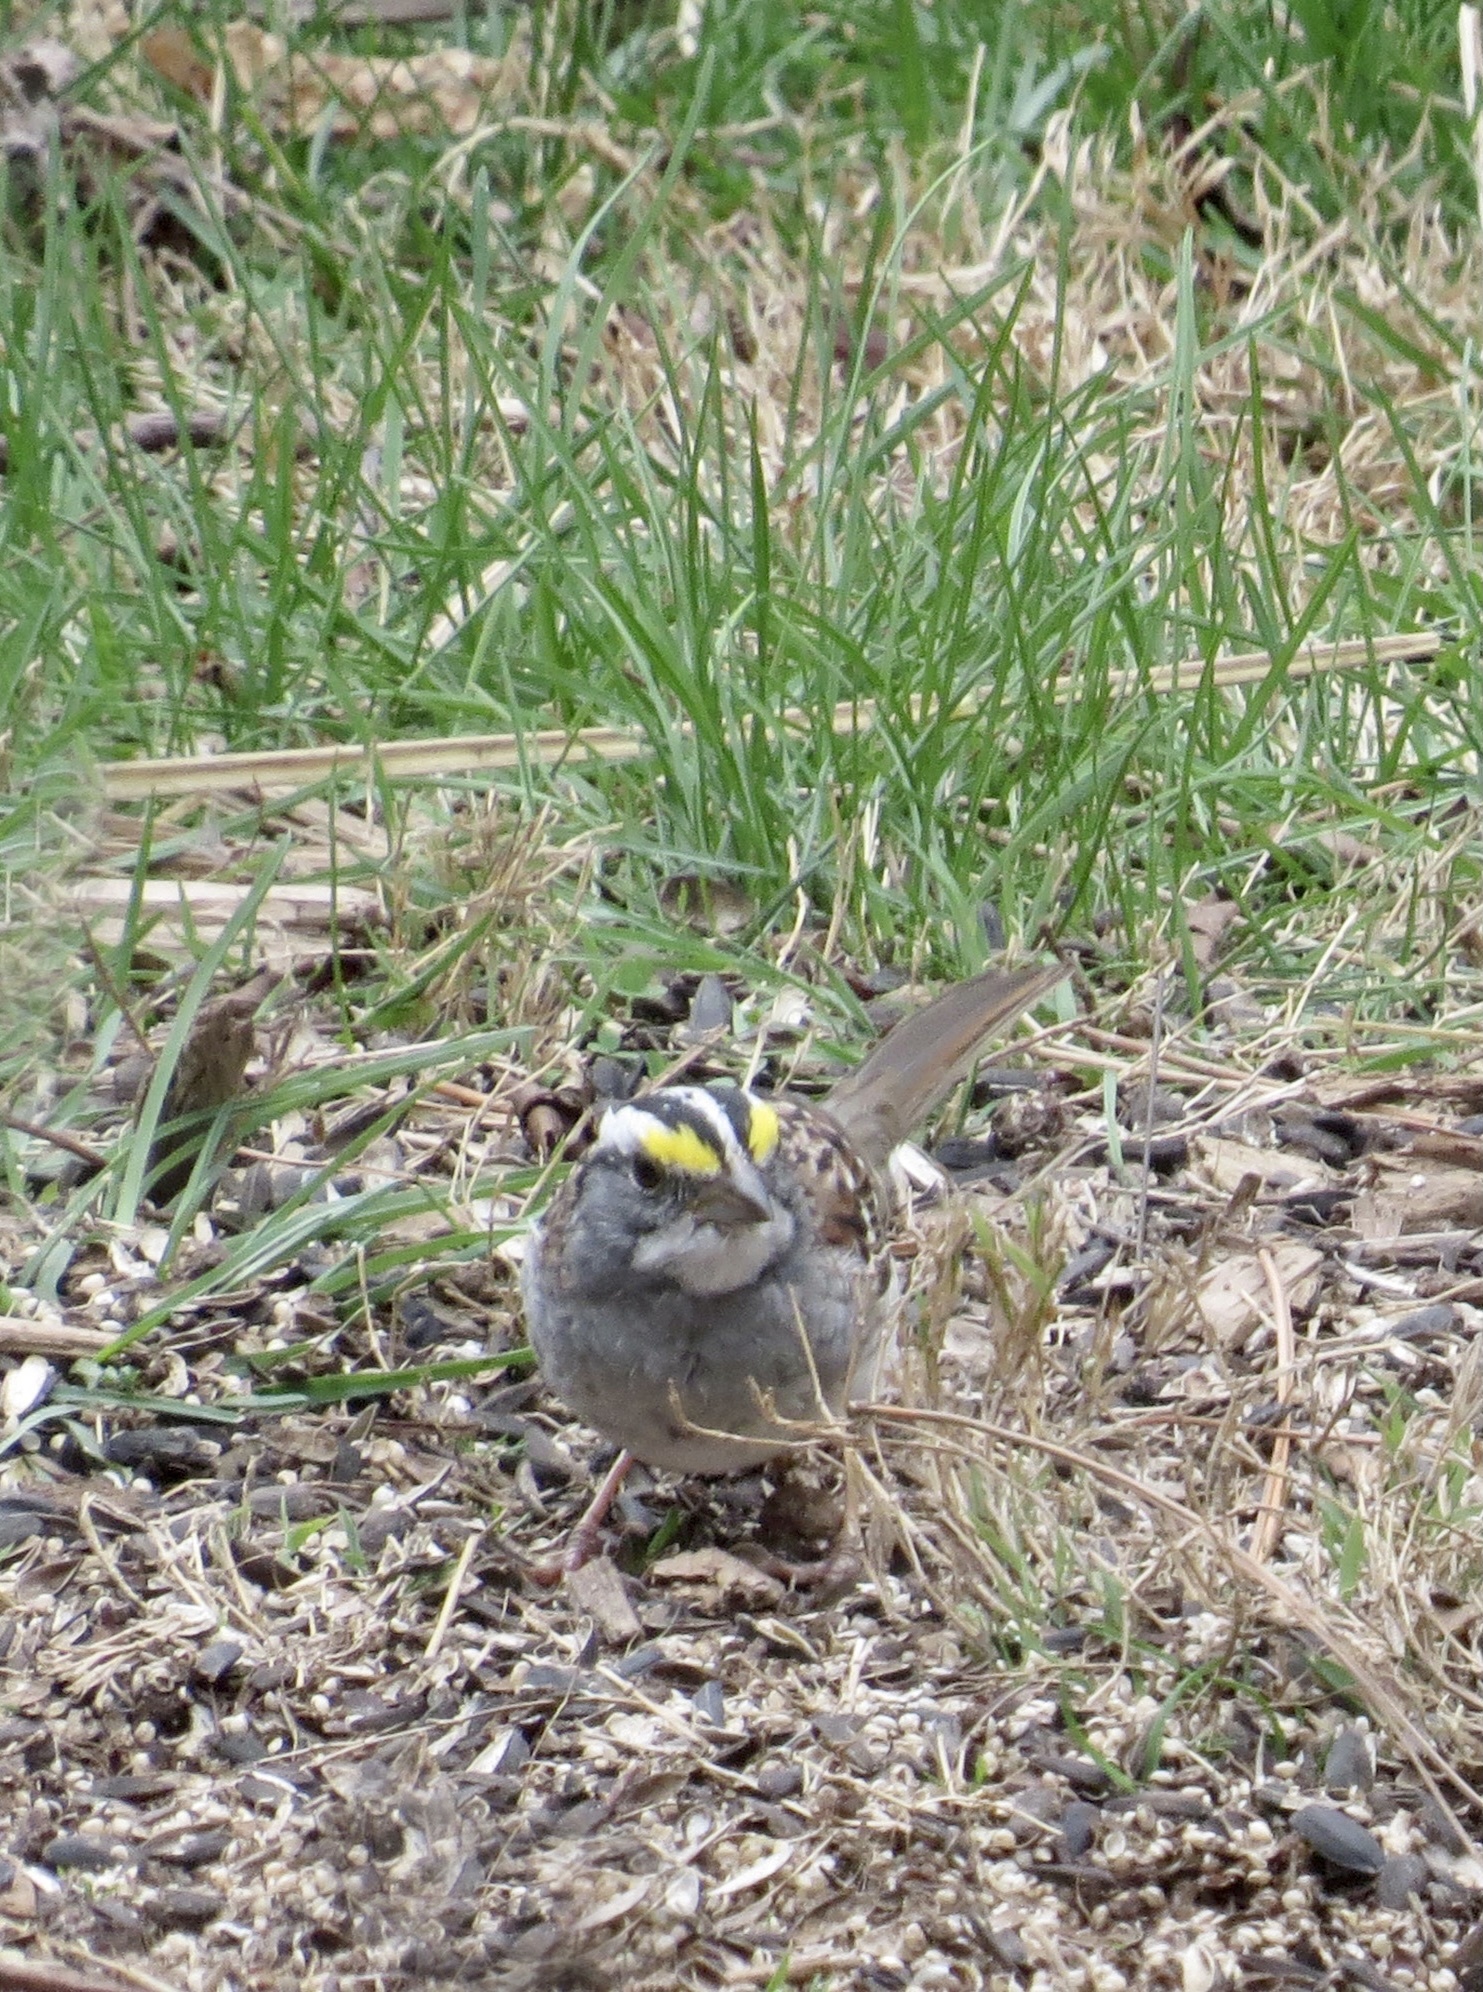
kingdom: Animalia
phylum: Chordata
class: Aves
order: Passeriformes
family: Passerellidae
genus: Zonotrichia
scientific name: Zonotrichia albicollis
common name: White-throated sparrow
